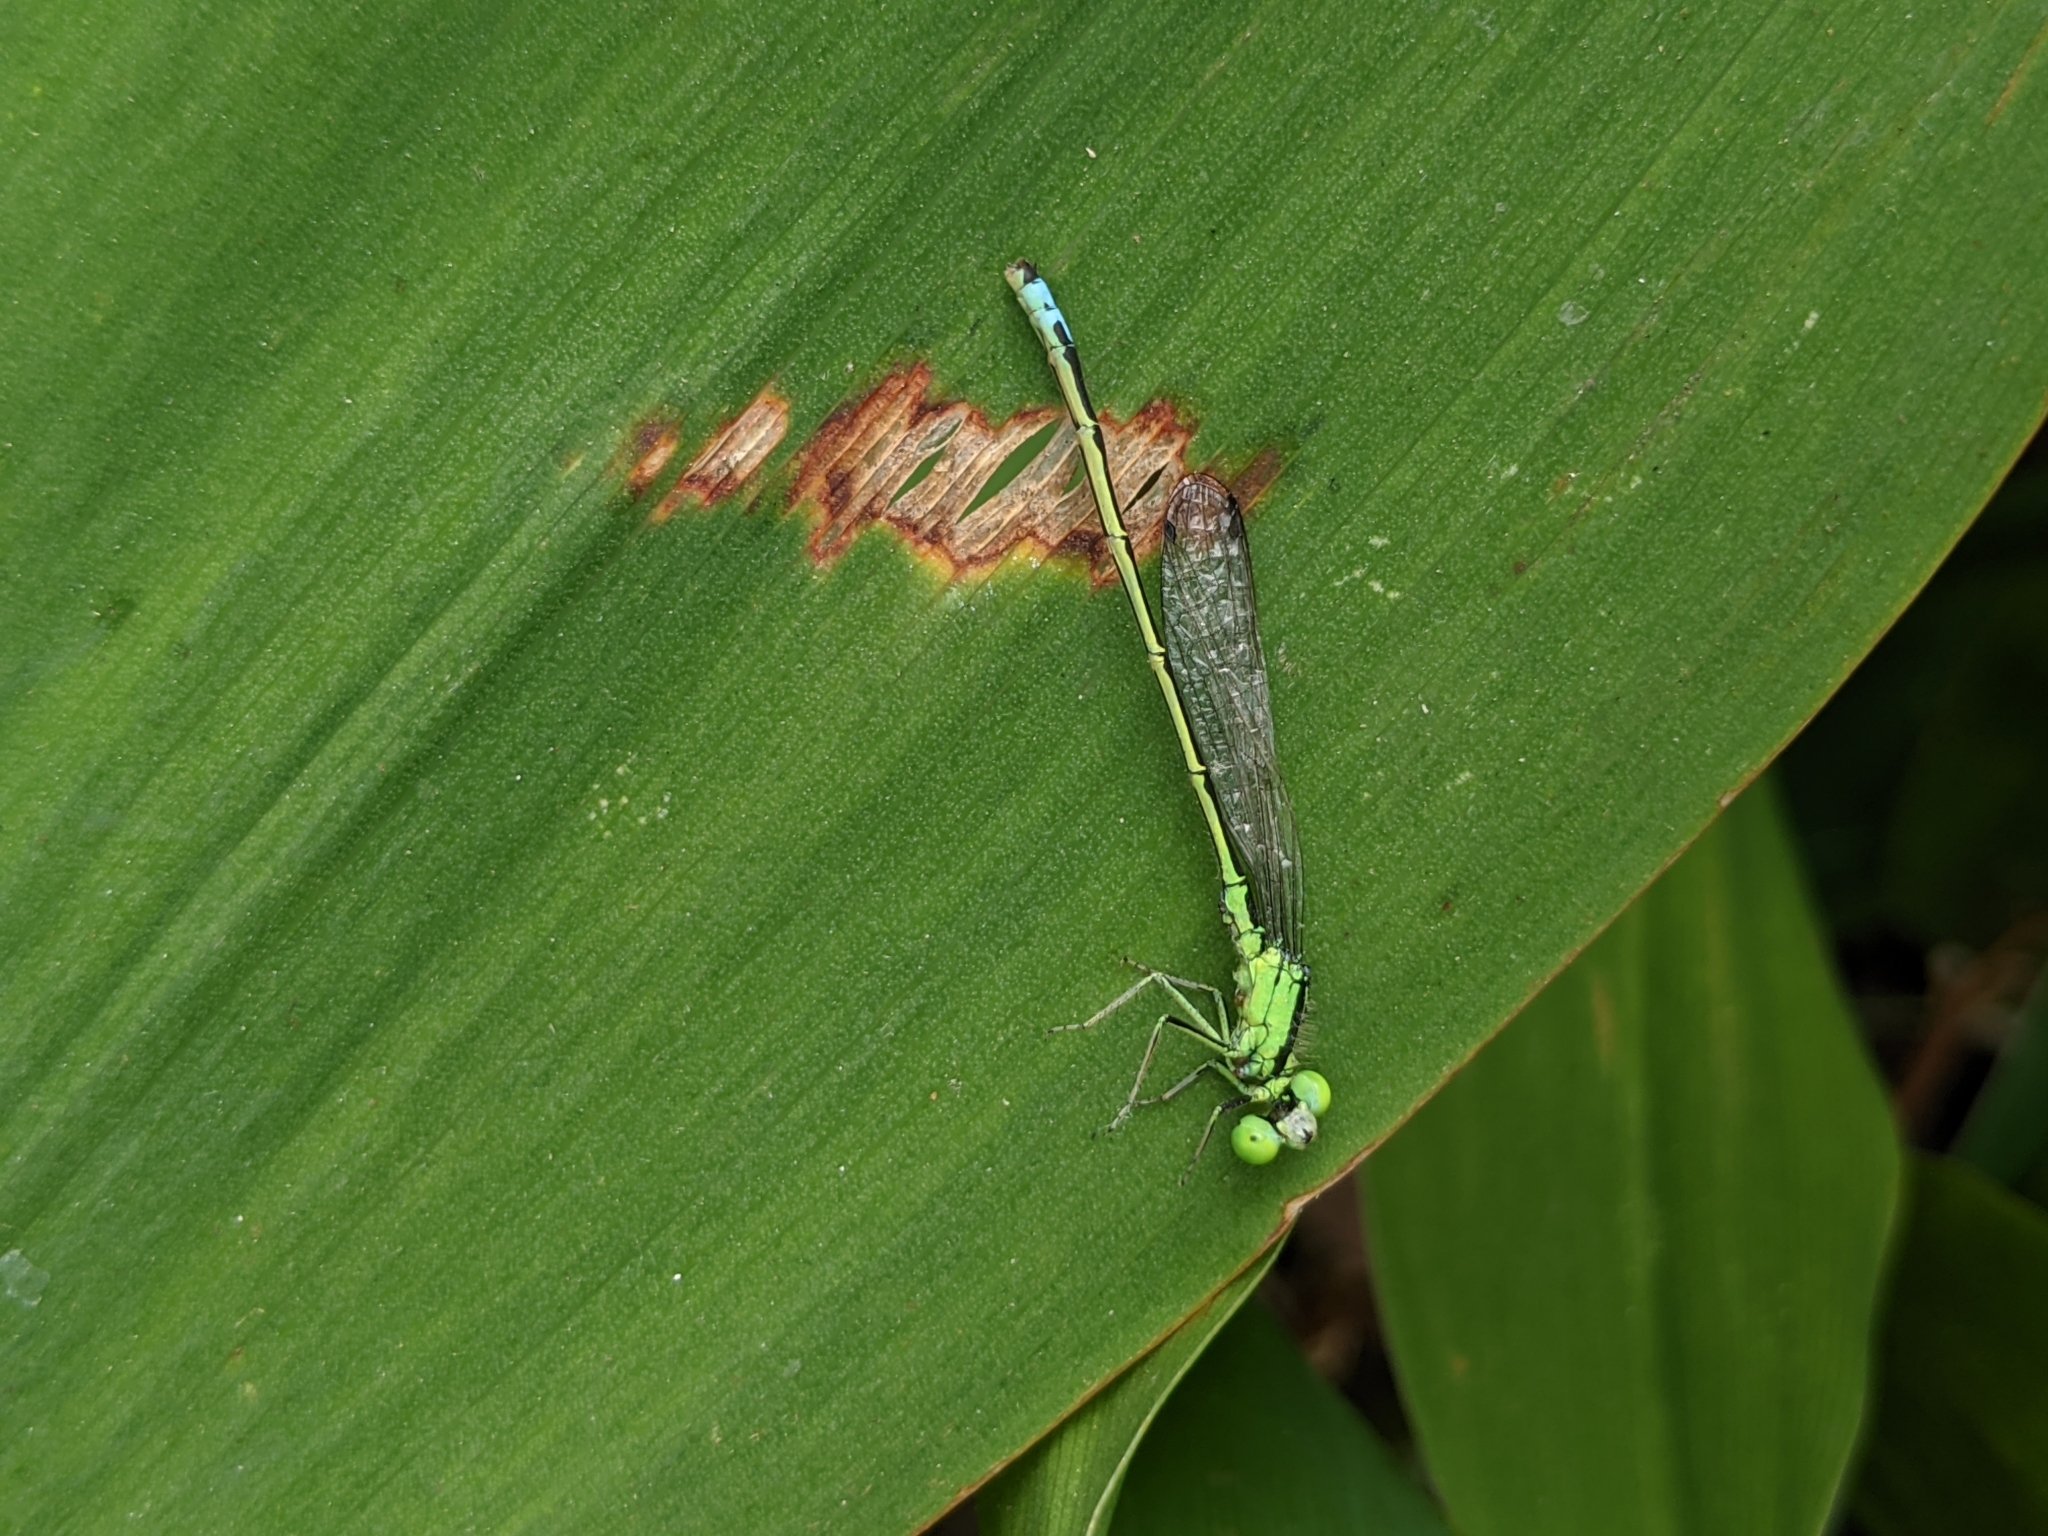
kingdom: Animalia
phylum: Arthropoda
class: Insecta
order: Odonata
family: Coenagrionidae
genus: Ischnura
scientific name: Ischnura verticalis
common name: Eastern forktail
